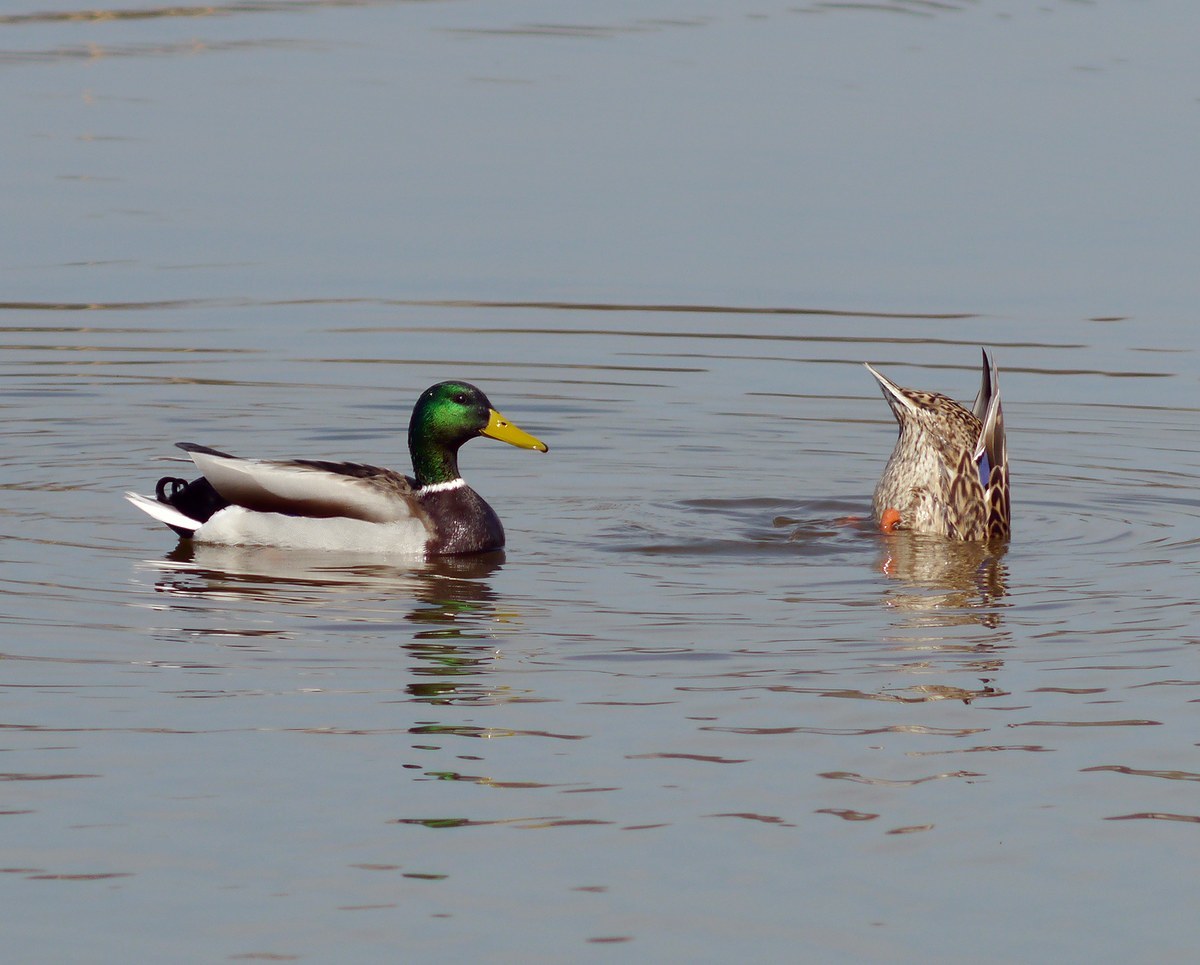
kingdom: Animalia
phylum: Chordata
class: Aves
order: Anseriformes
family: Anatidae
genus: Anas
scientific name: Anas platyrhynchos
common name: Mallard
